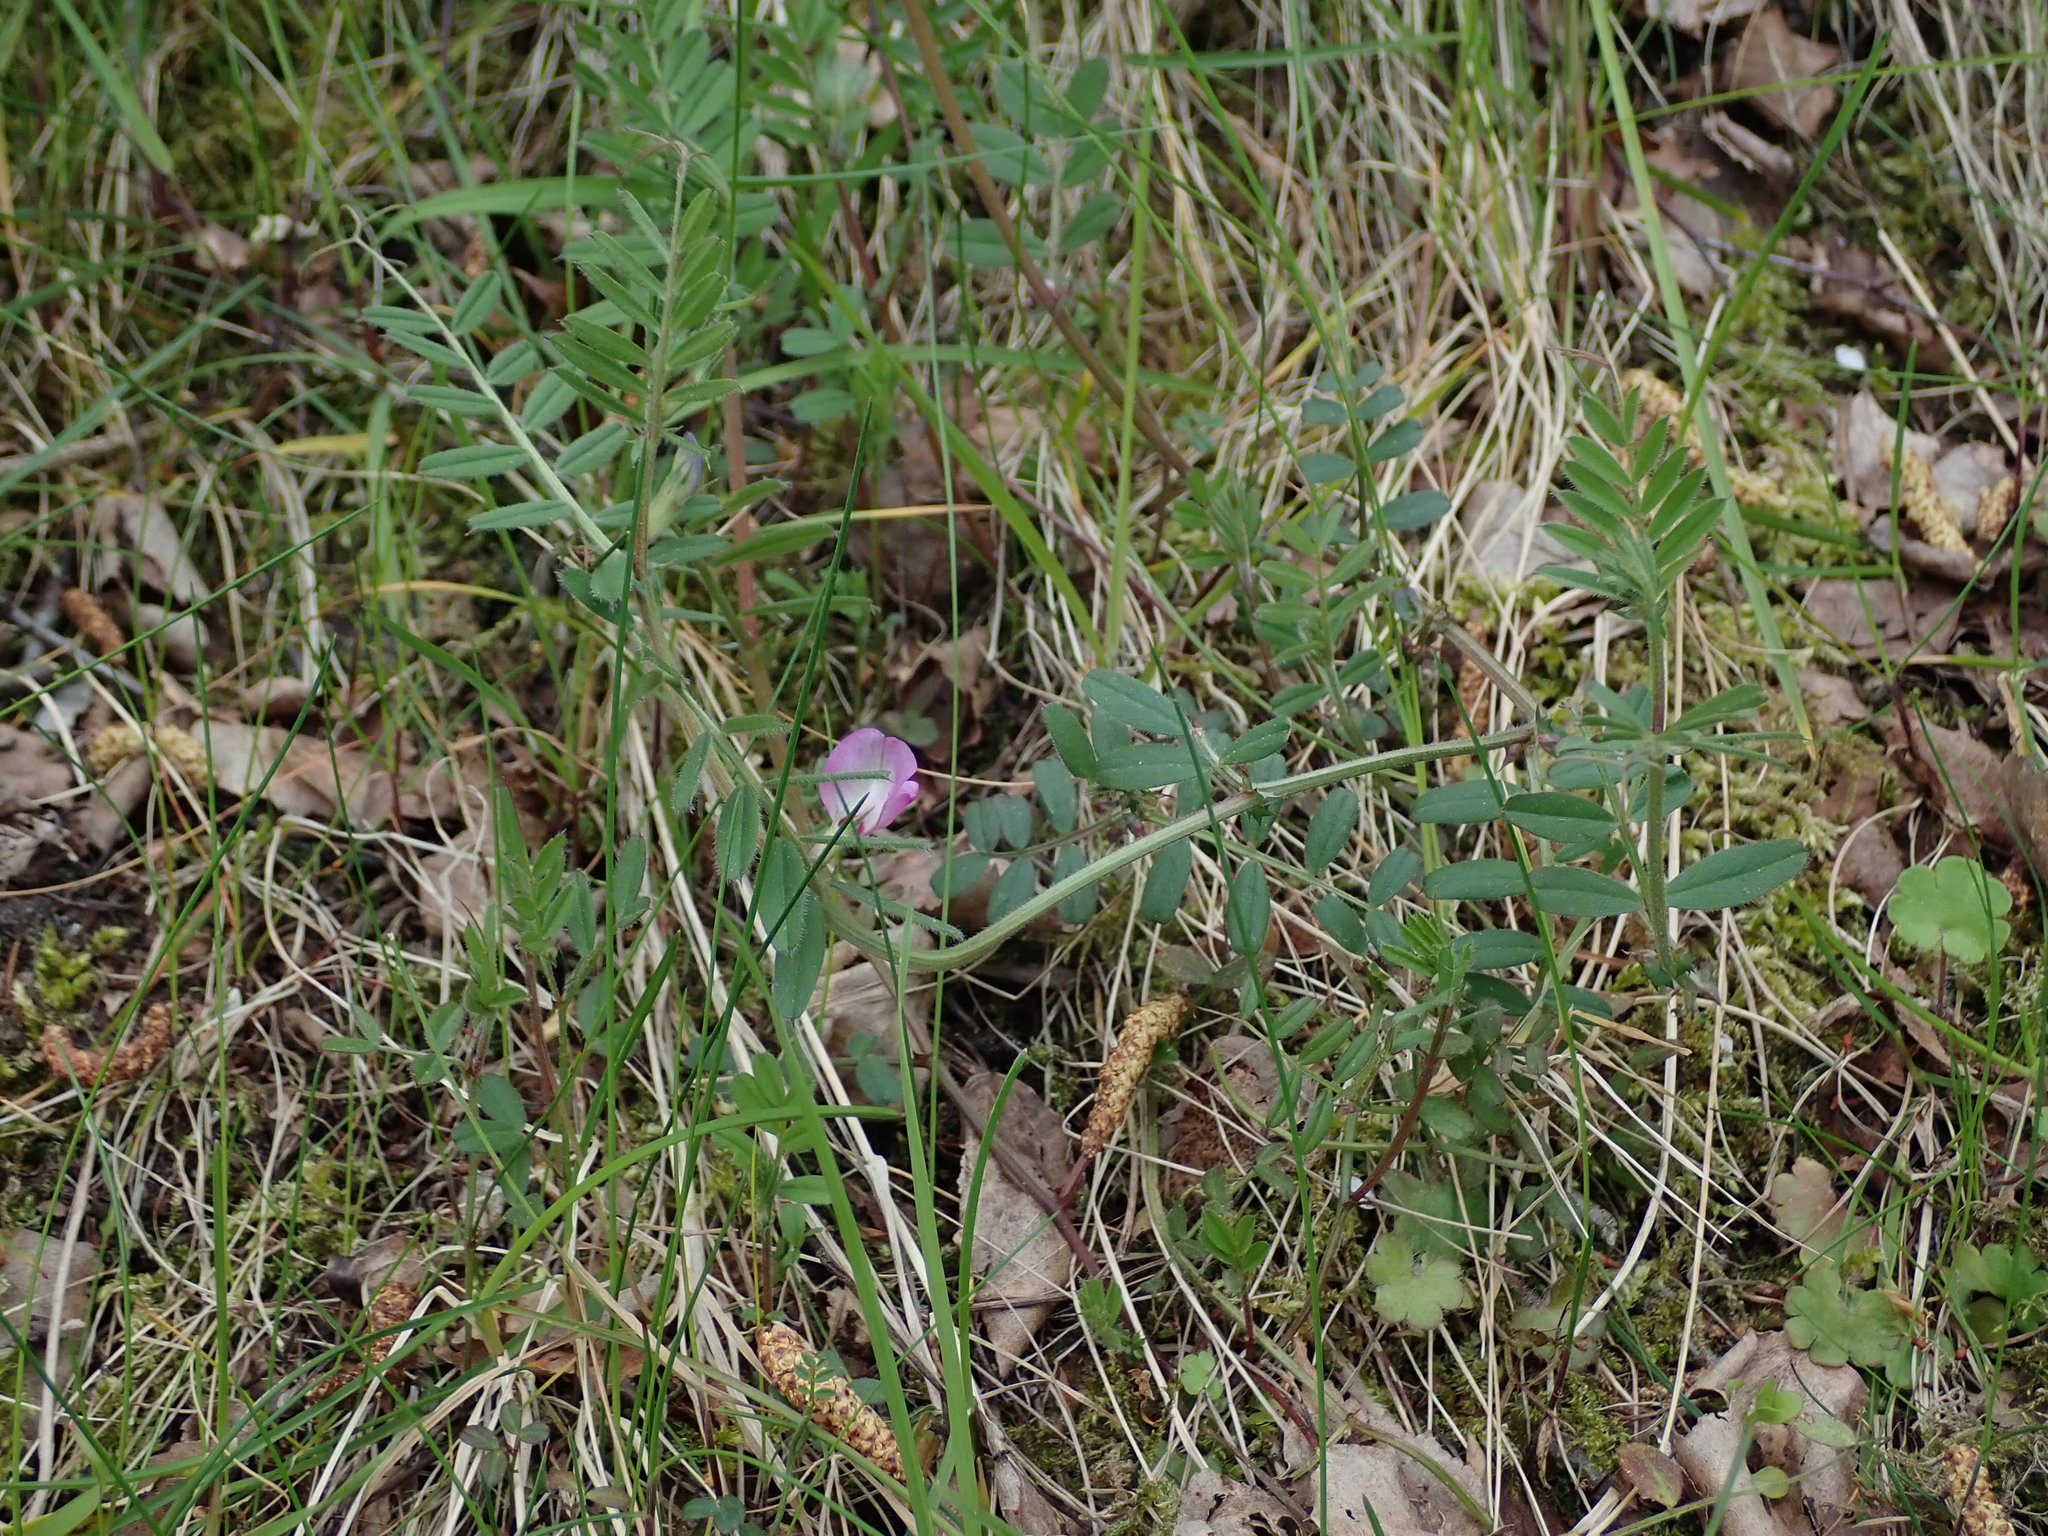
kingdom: Plantae
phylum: Tracheophyta
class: Magnoliopsida
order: Fabales
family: Fabaceae
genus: Vicia
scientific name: Vicia sativa
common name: Garden vetch
